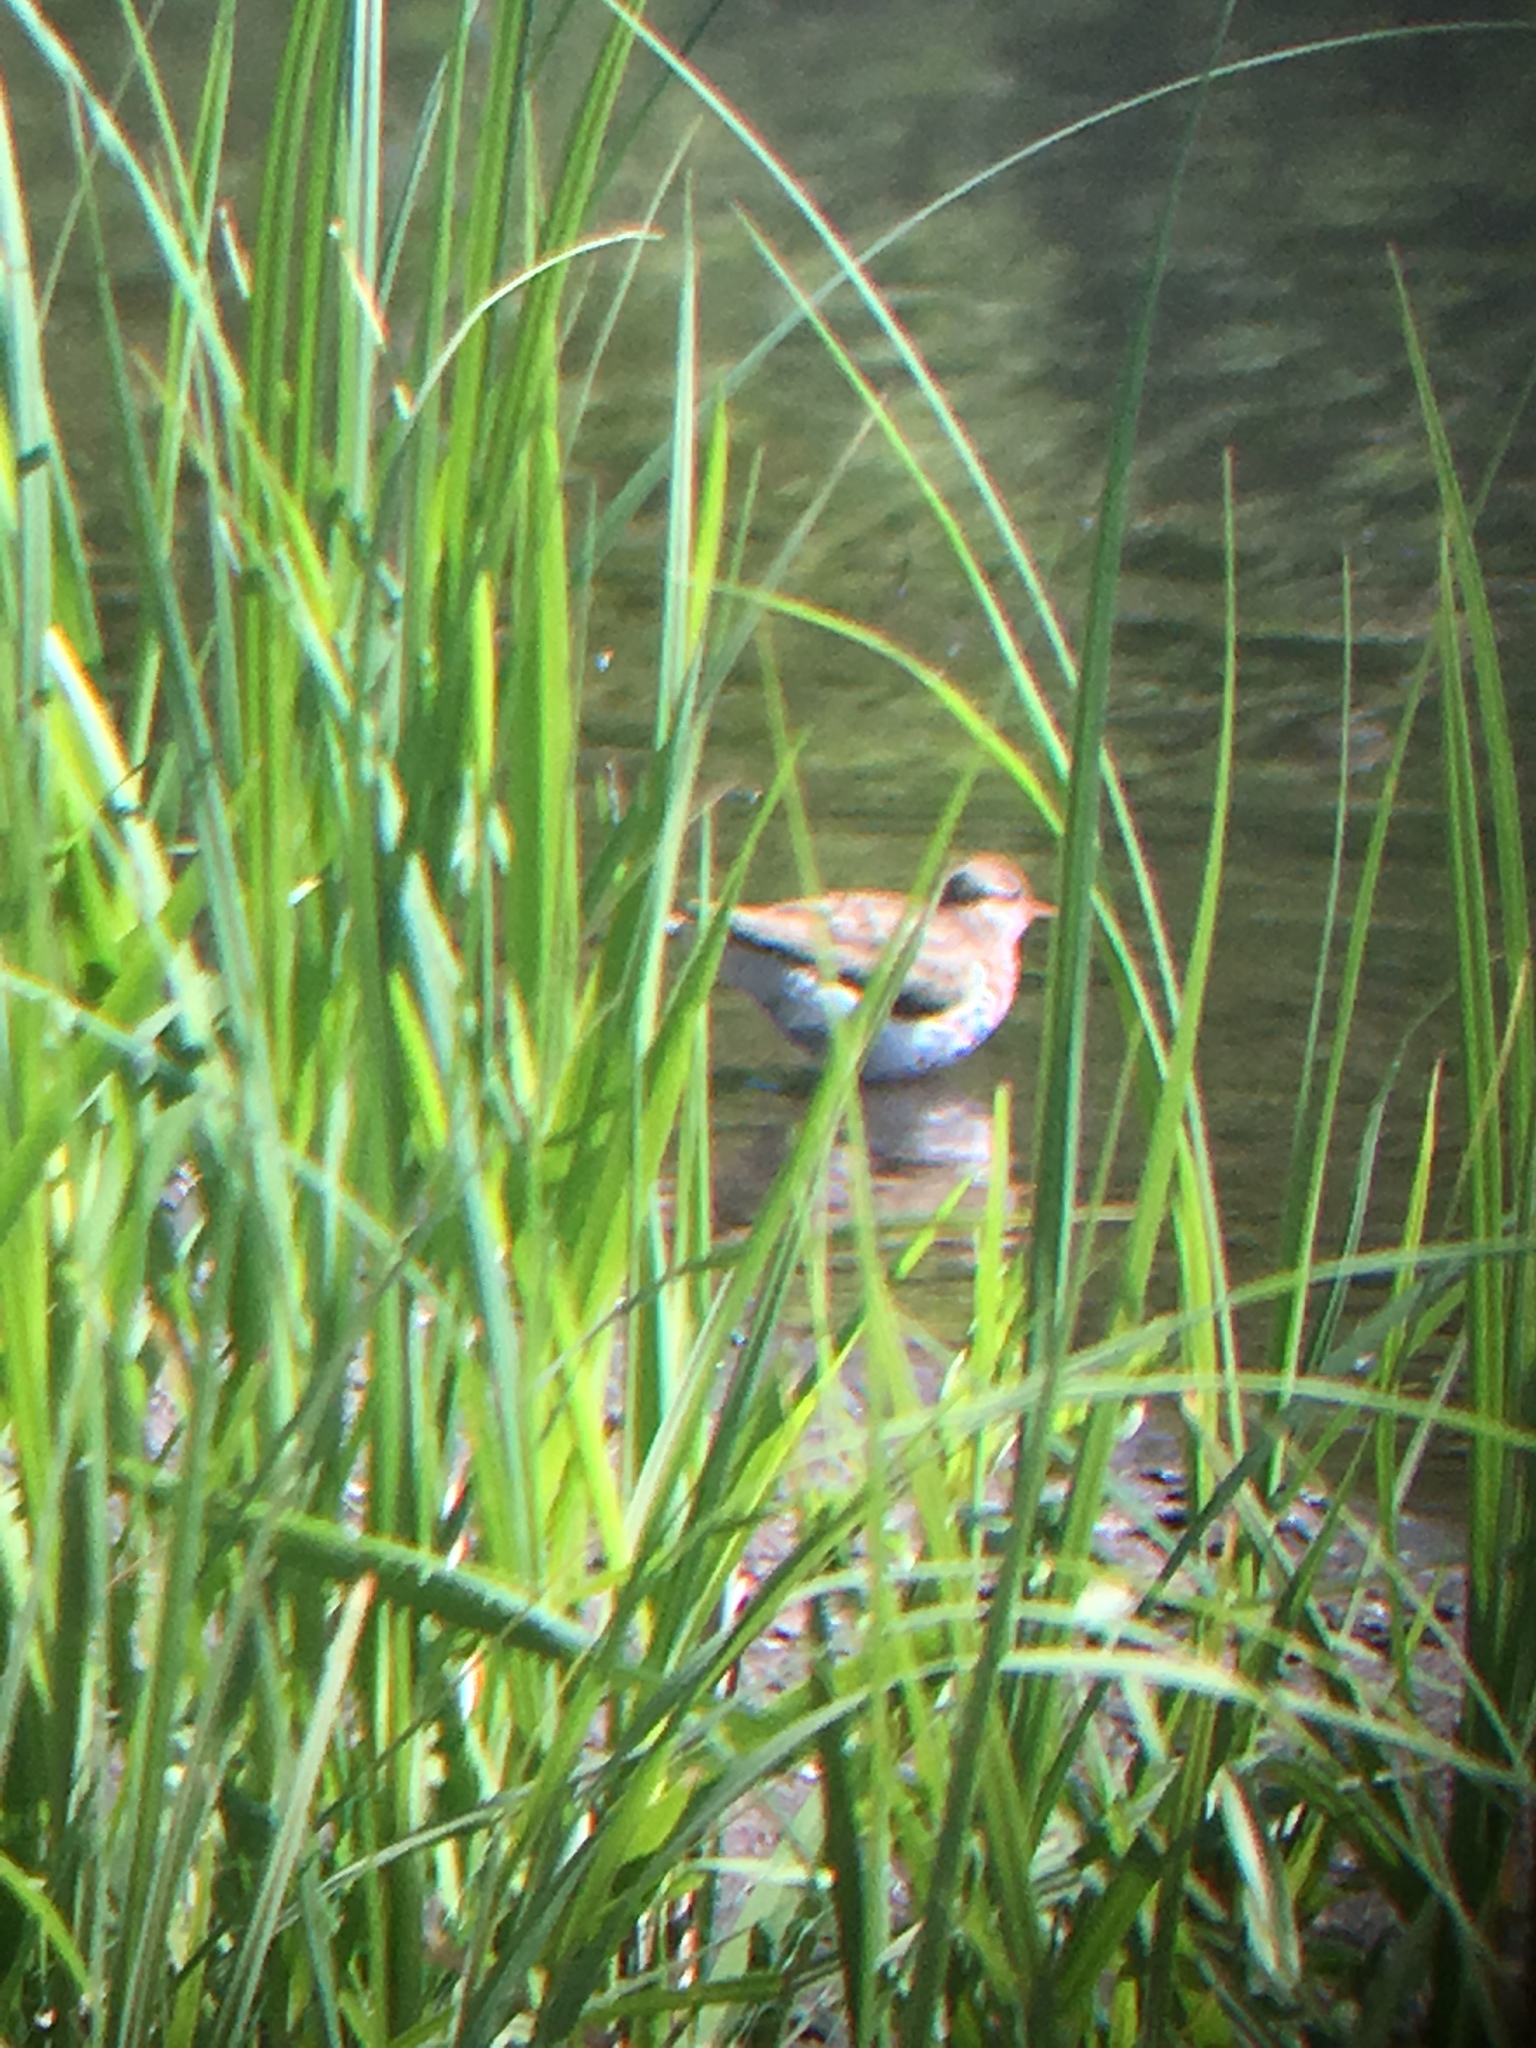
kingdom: Animalia
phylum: Chordata
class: Aves
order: Charadriiformes
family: Scolopacidae
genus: Actitis
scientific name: Actitis macularius
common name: Spotted sandpiper
